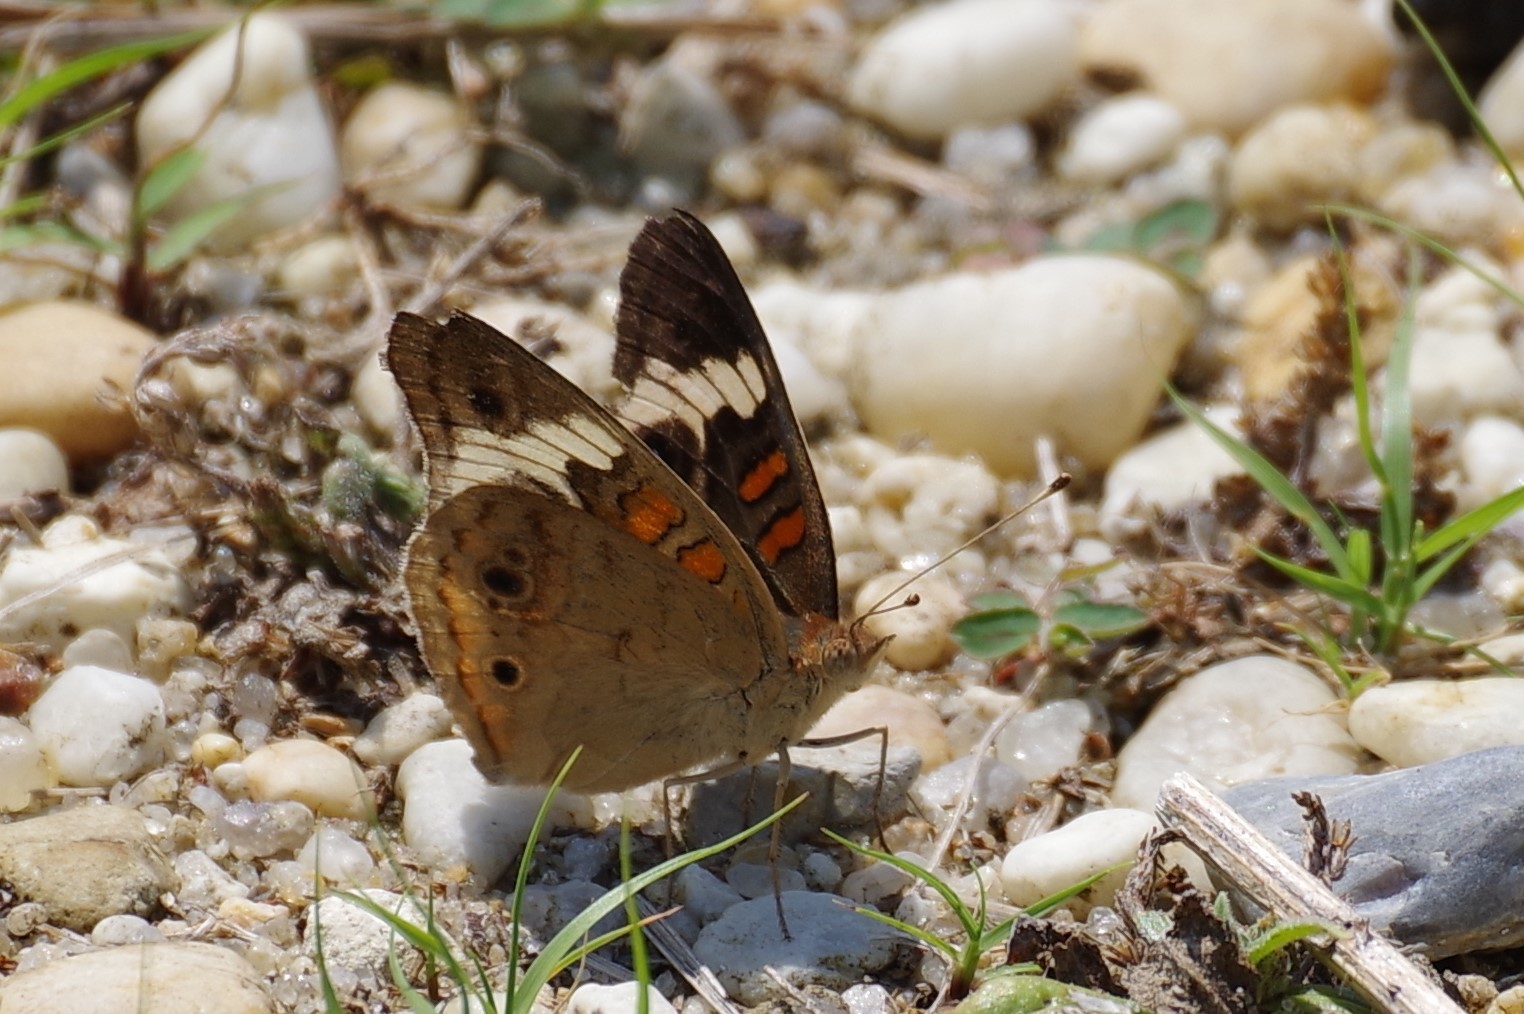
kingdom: Animalia
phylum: Arthropoda
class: Insecta
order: Lepidoptera
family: Nymphalidae
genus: Junonia
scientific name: Junonia coenia
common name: Common buckeye
